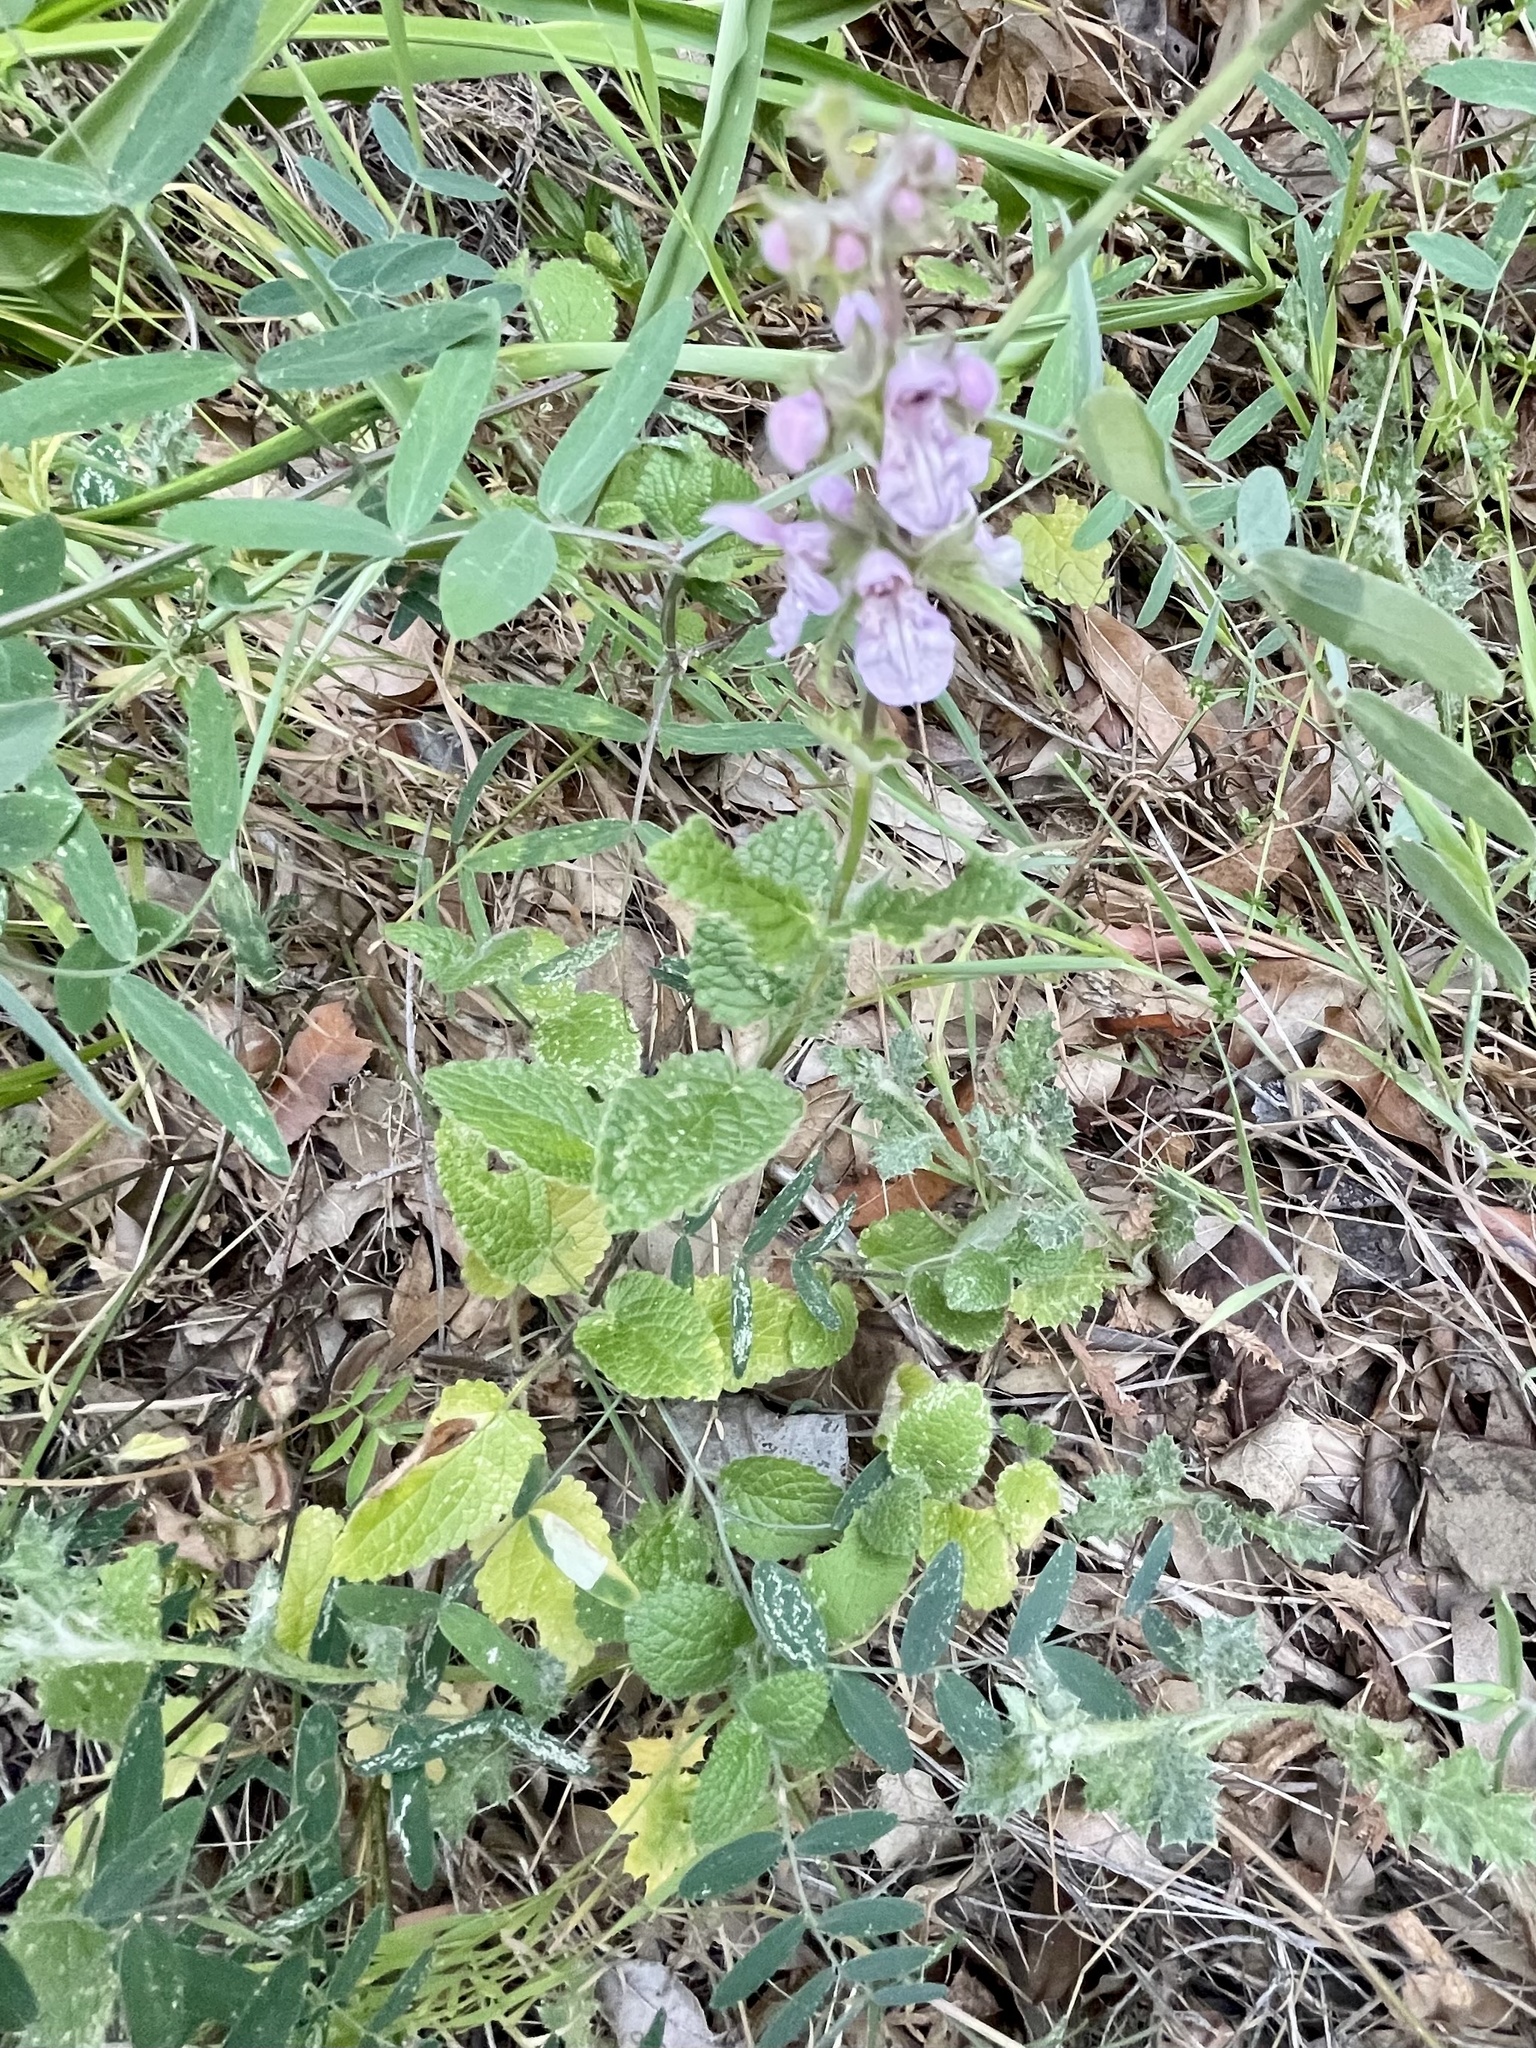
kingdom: Plantae
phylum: Tracheophyta
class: Magnoliopsida
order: Lamiales
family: Lamiaceae
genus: Stachys
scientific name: Stachys rigida
